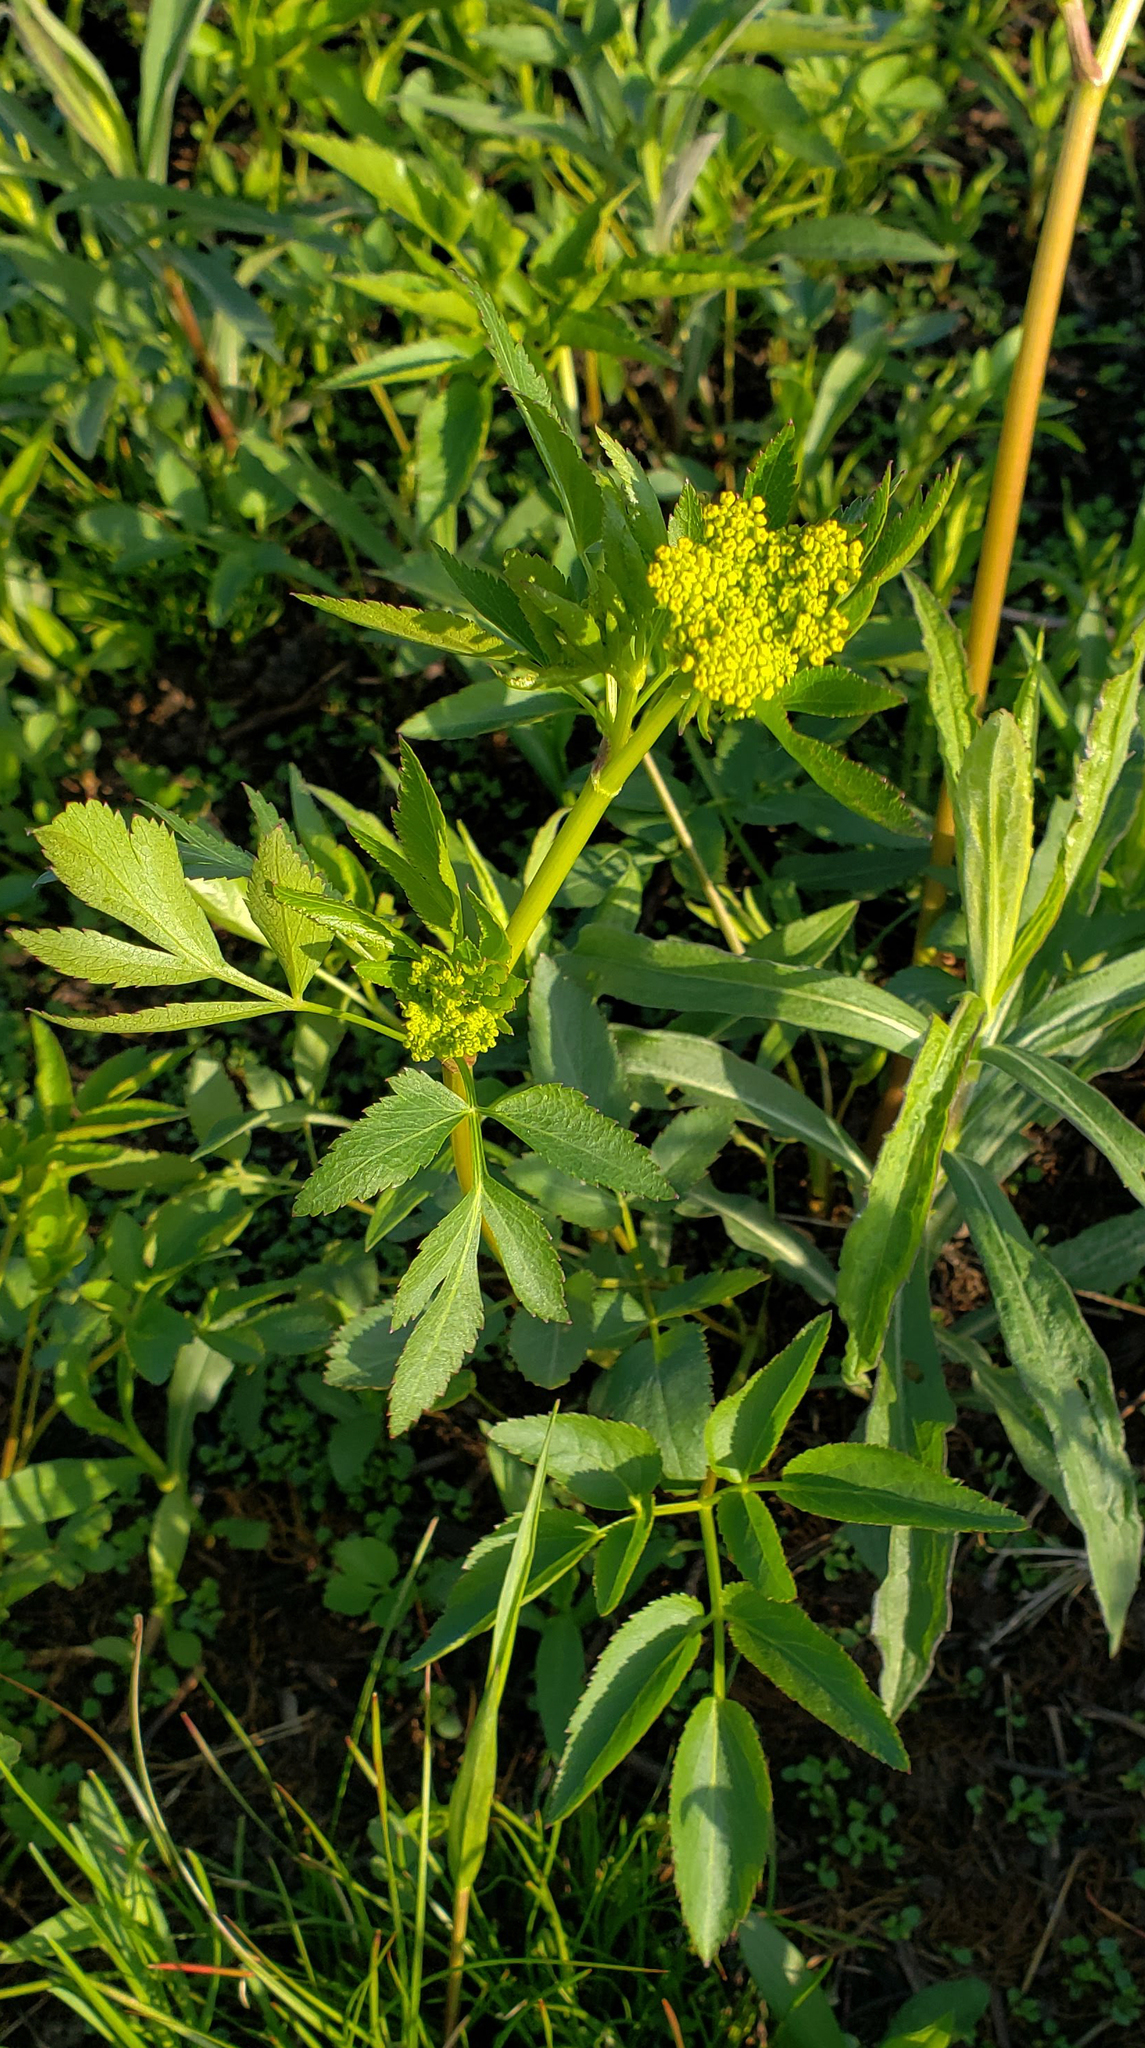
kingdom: Plantae
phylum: Tracheophyta
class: Magnoliopsida
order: Apiales
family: Apiaceae
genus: Zizia
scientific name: Zizia aurea
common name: Golden alexanders
